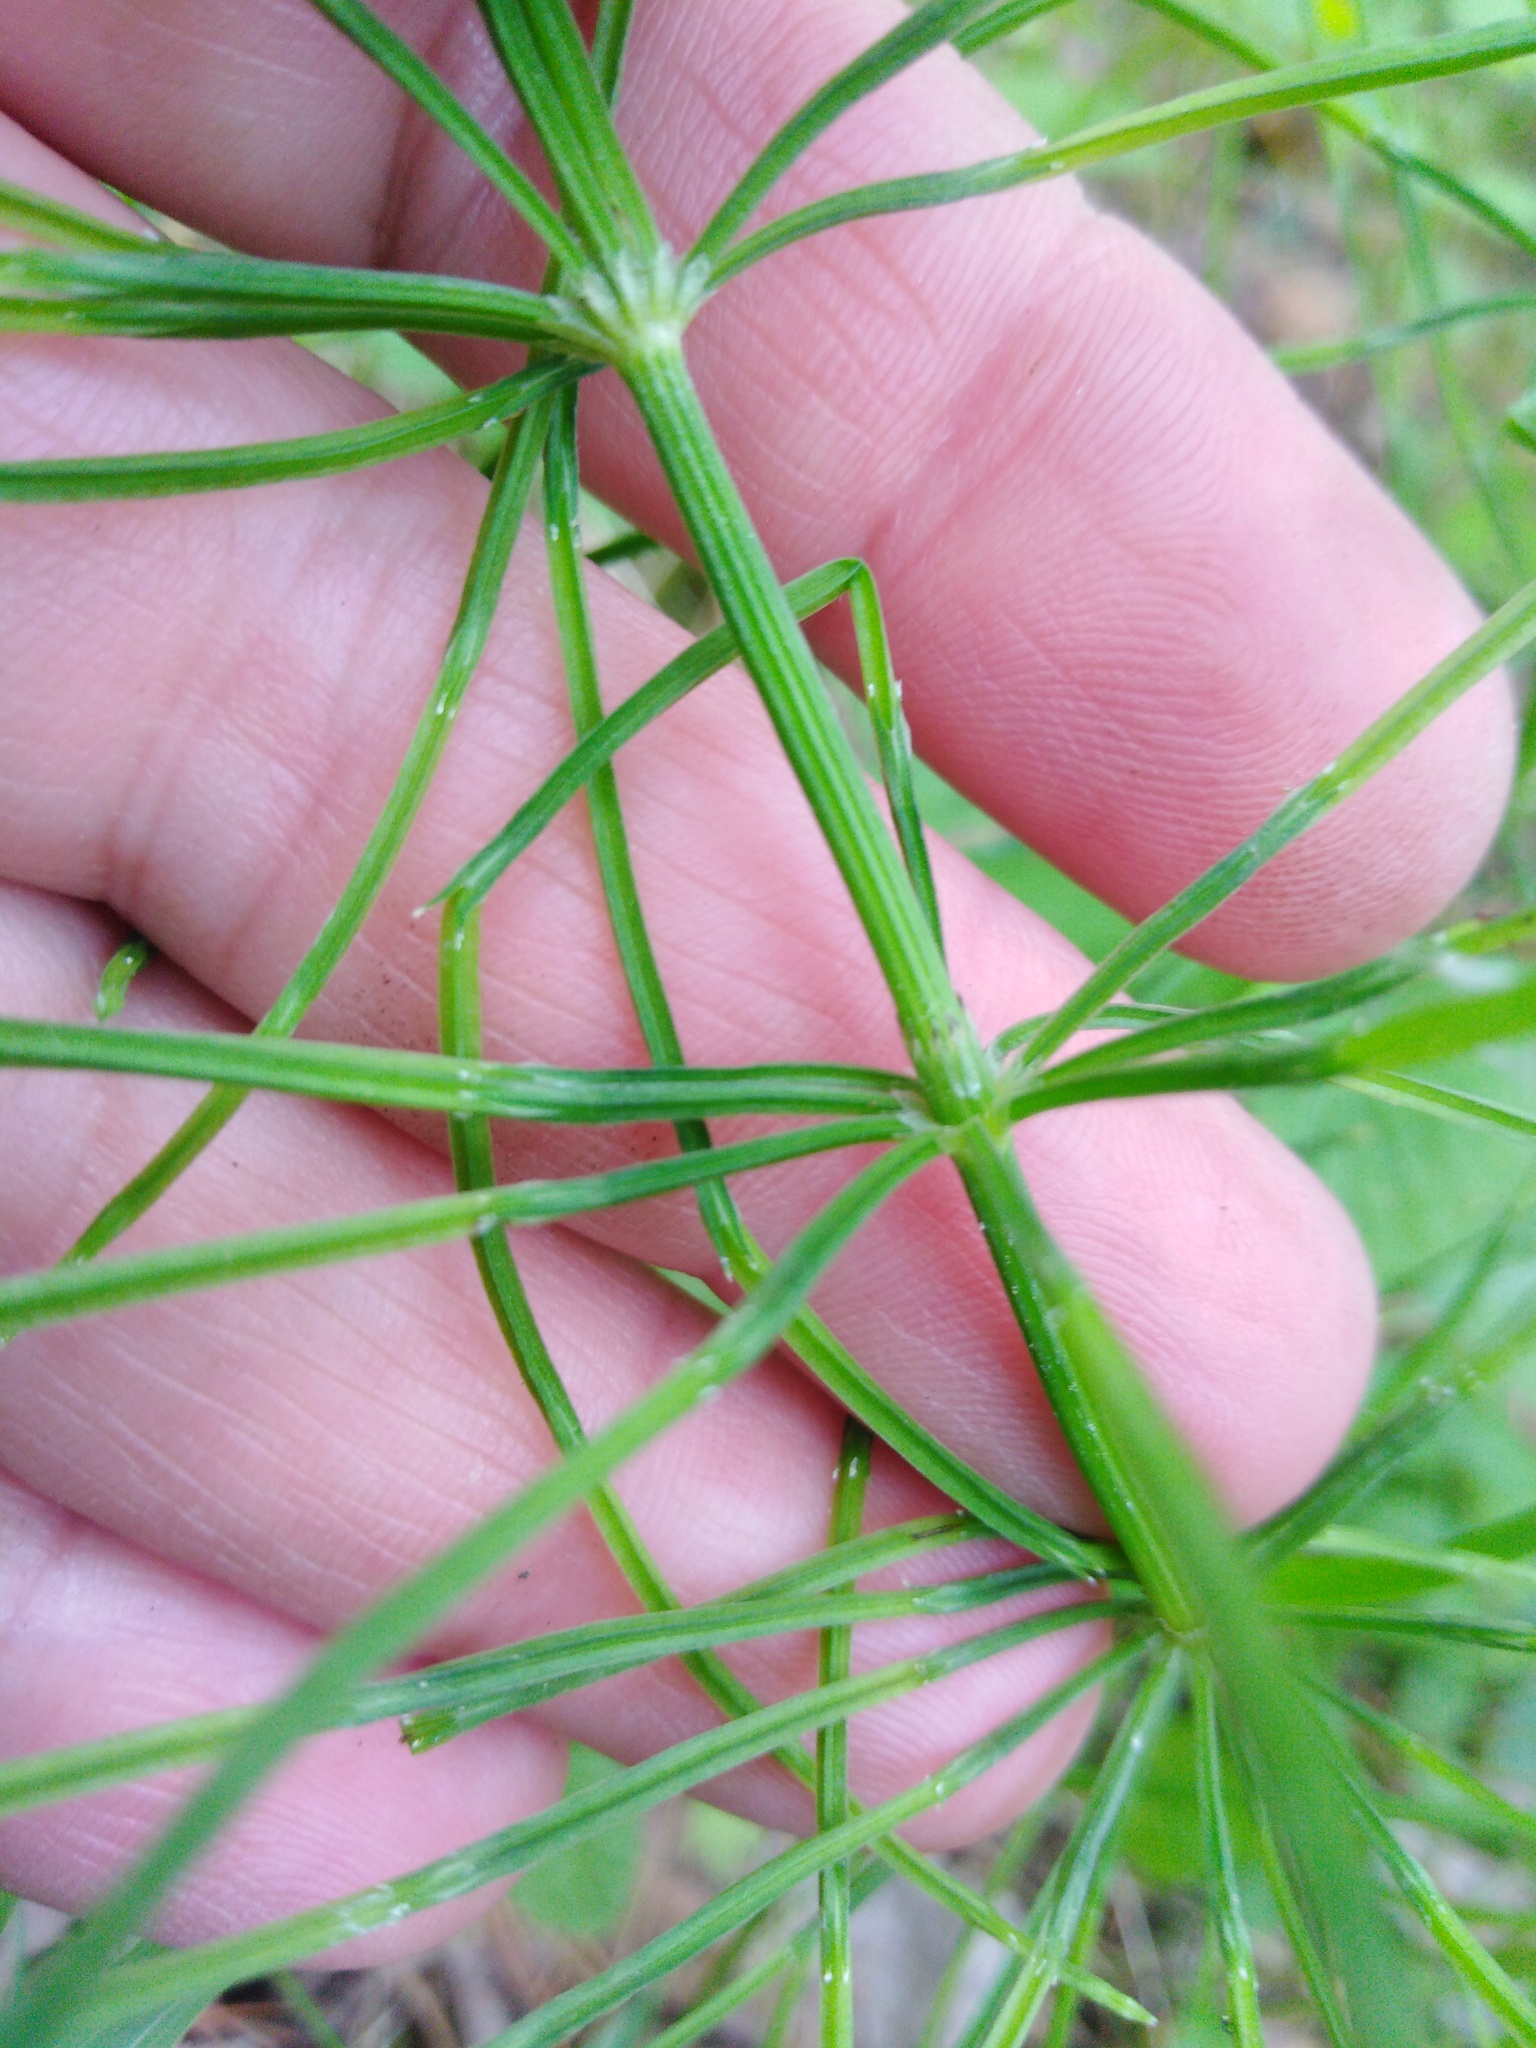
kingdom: Plantae
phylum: Tracheophyta
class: Polypodiopsida
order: Equisetales
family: Equisetaceae
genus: Equisetum
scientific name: Equisetum arvense
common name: Field horsetail
